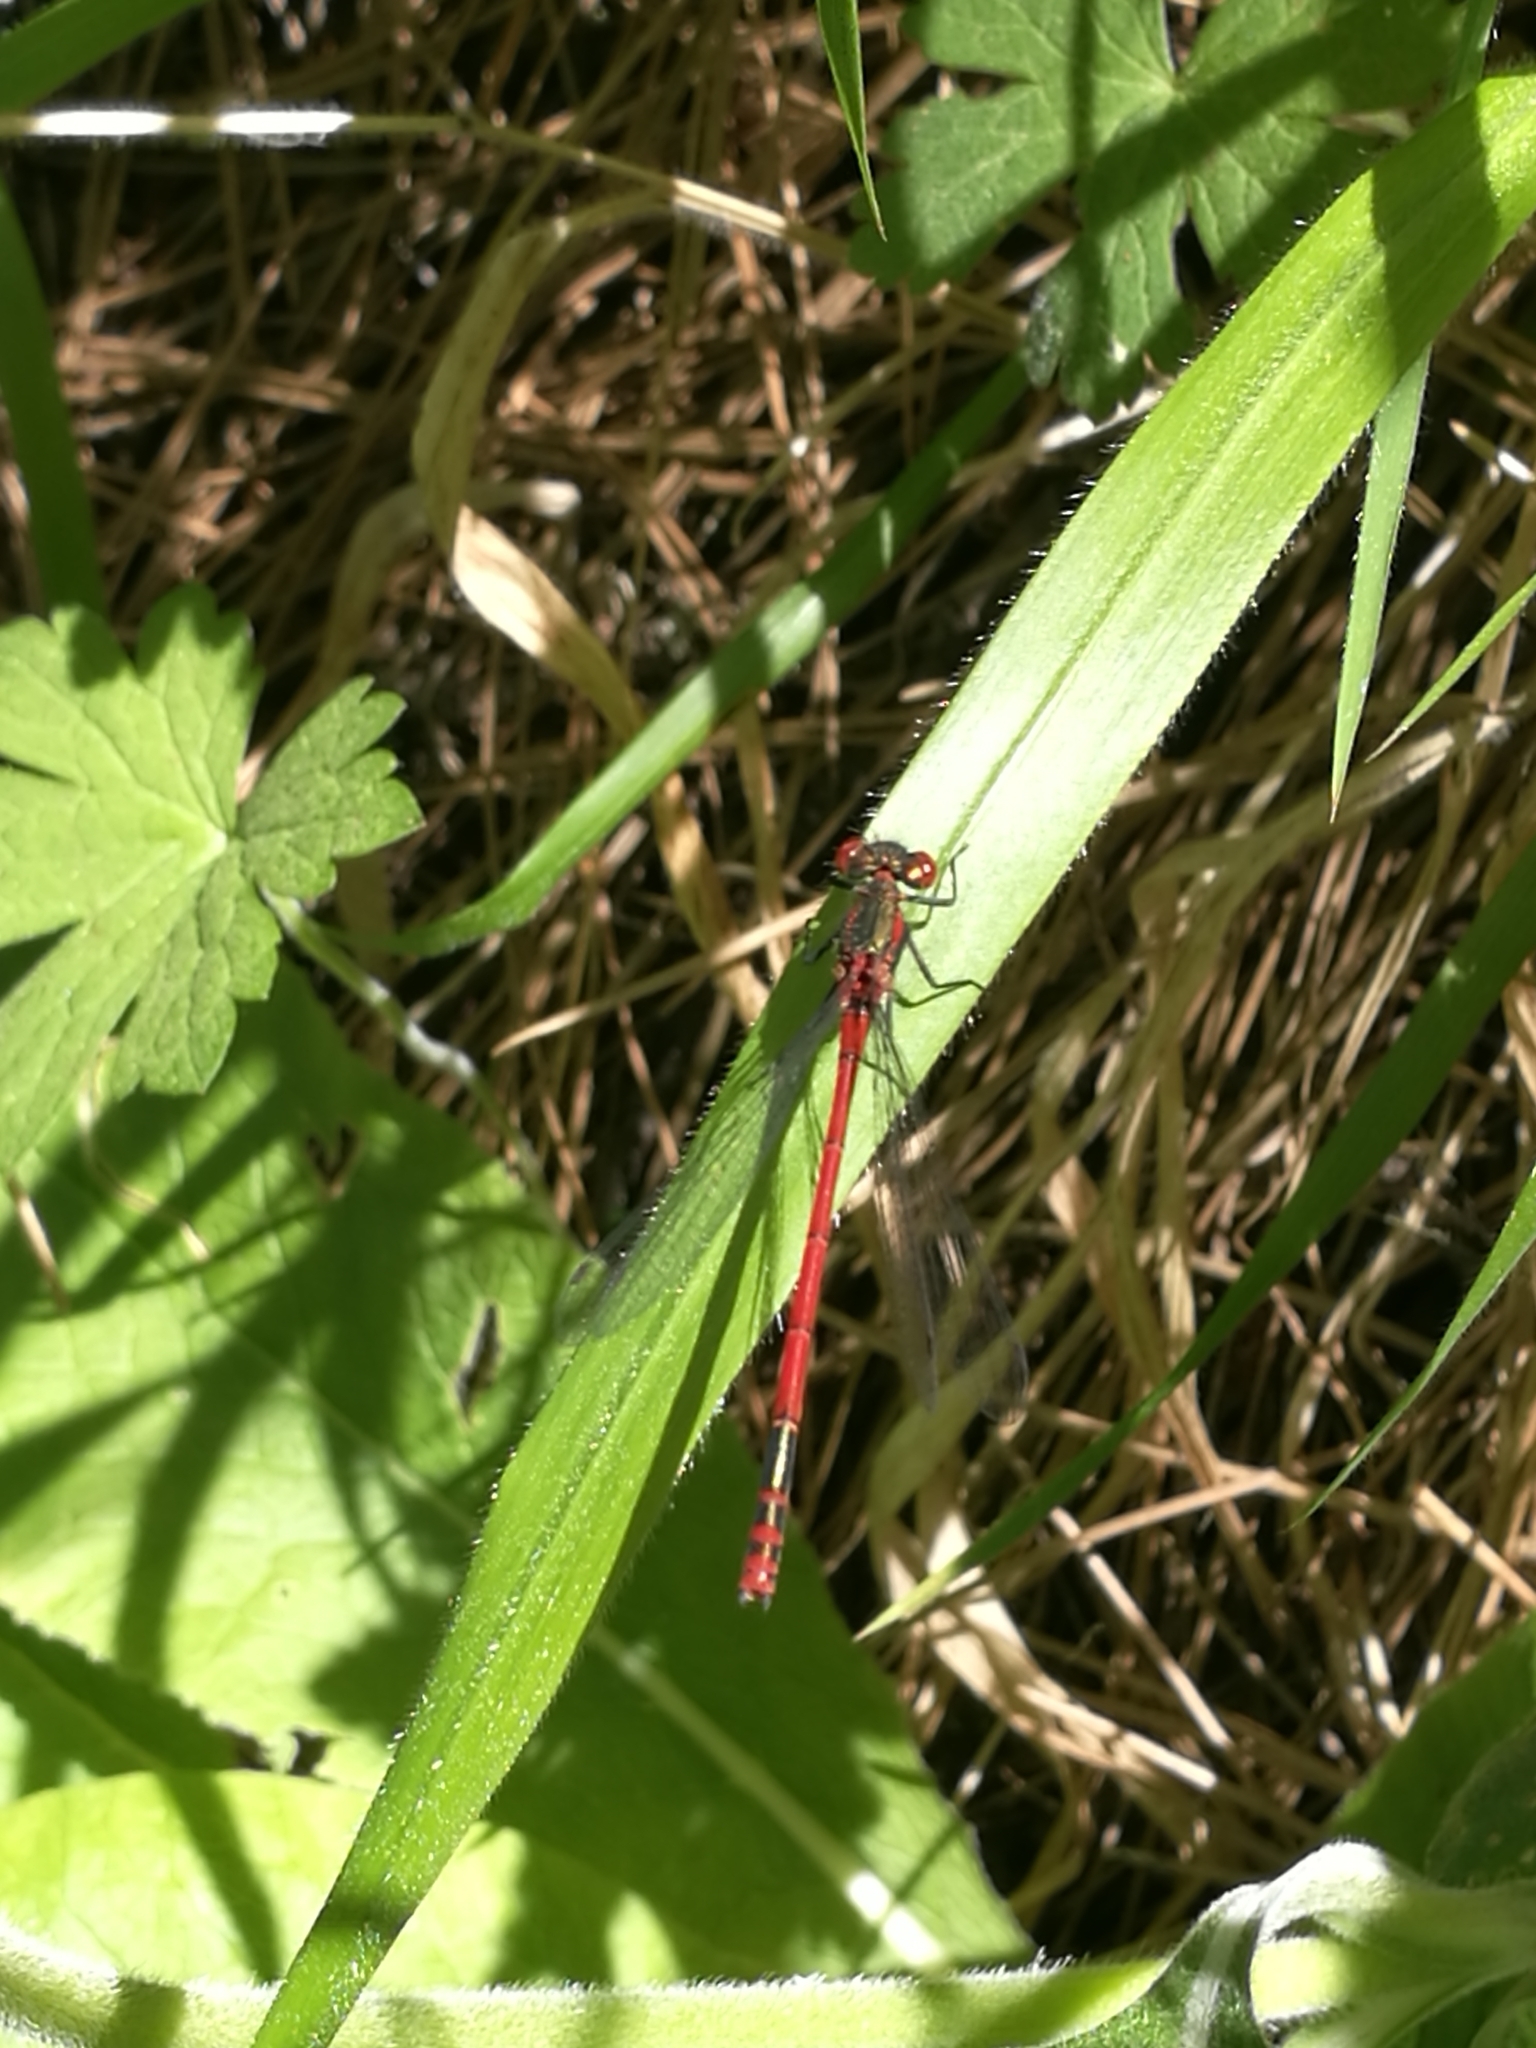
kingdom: Animalia
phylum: Arthropoda
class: Insecta
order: Odonata
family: Coenagrionidae
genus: Pyrrhosoma
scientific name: Pyrrhosoma nymphula
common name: Large red damsel
